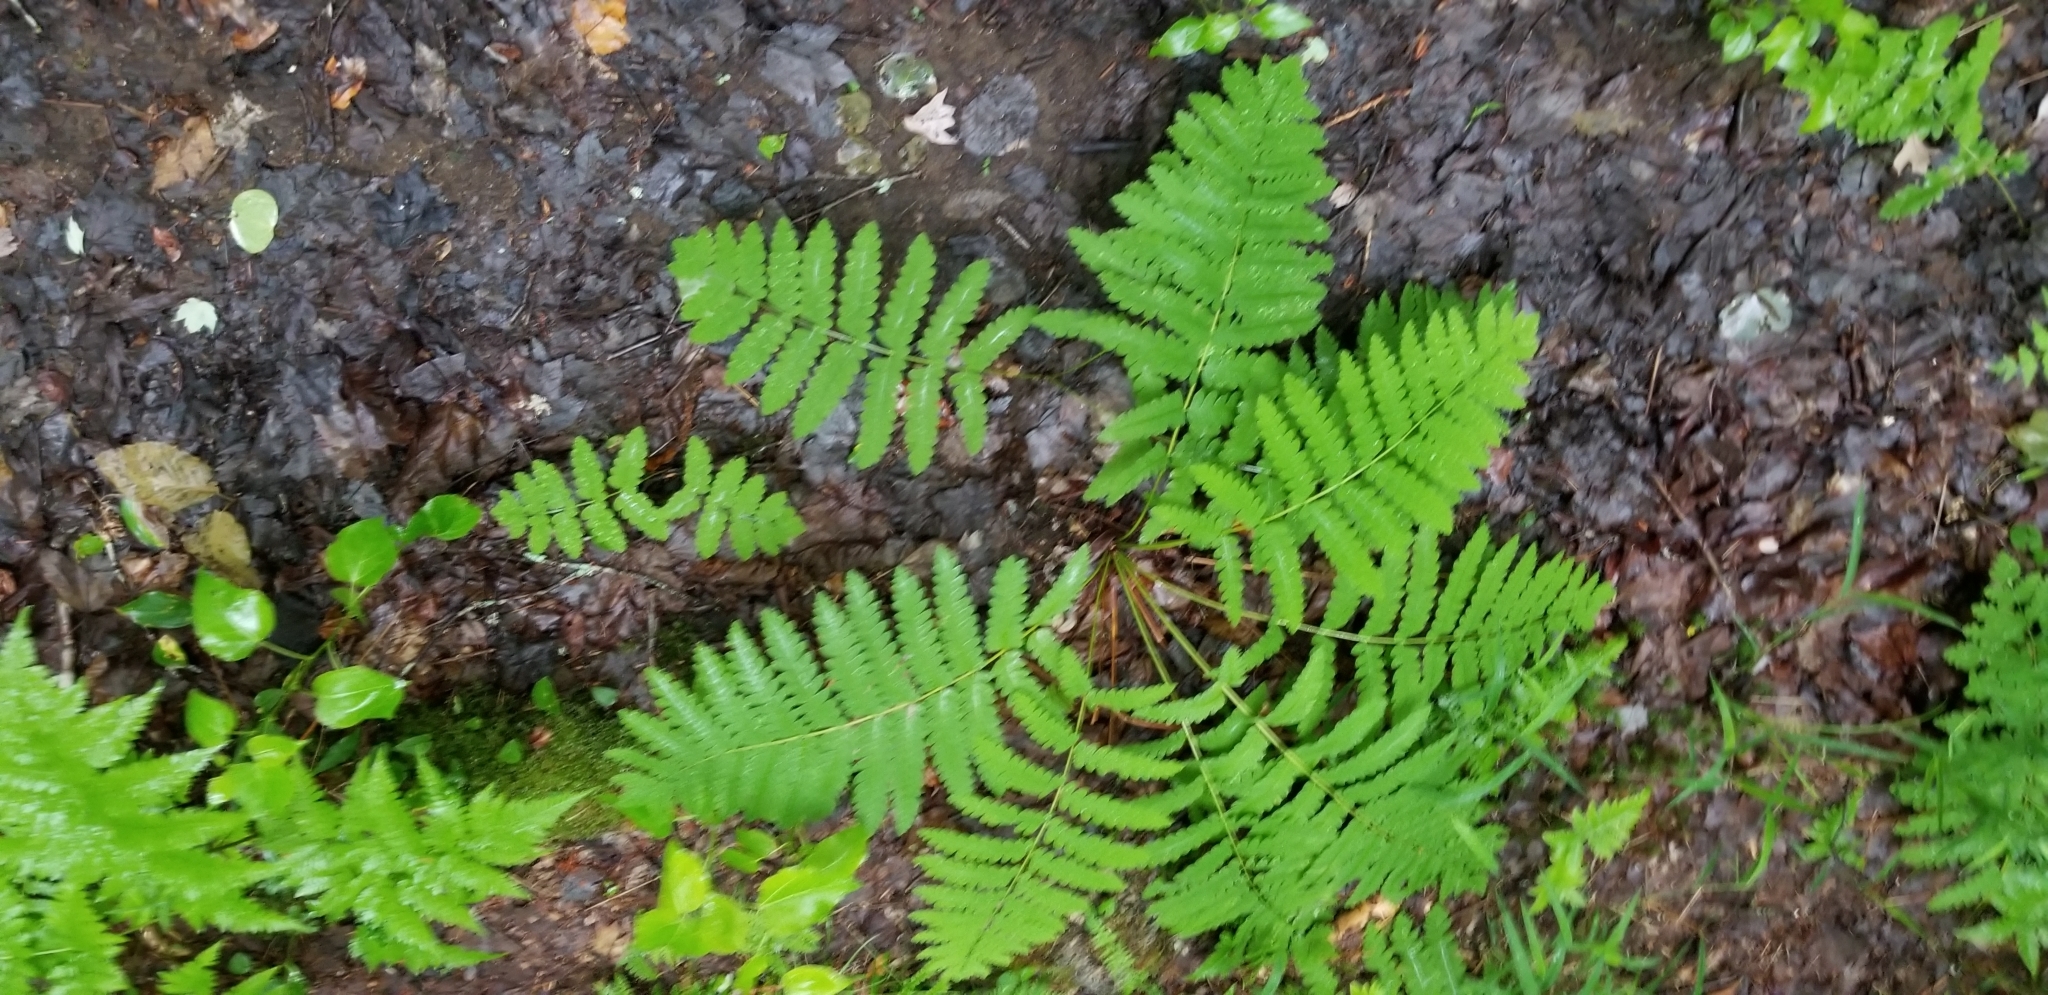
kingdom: Plantae
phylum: Tracheophyta
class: Polypodiopsida
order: Osmundales
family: Osmundaceae
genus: Claytosmunda
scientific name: Claytosmunda claytoniana
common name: Clayton's fern
